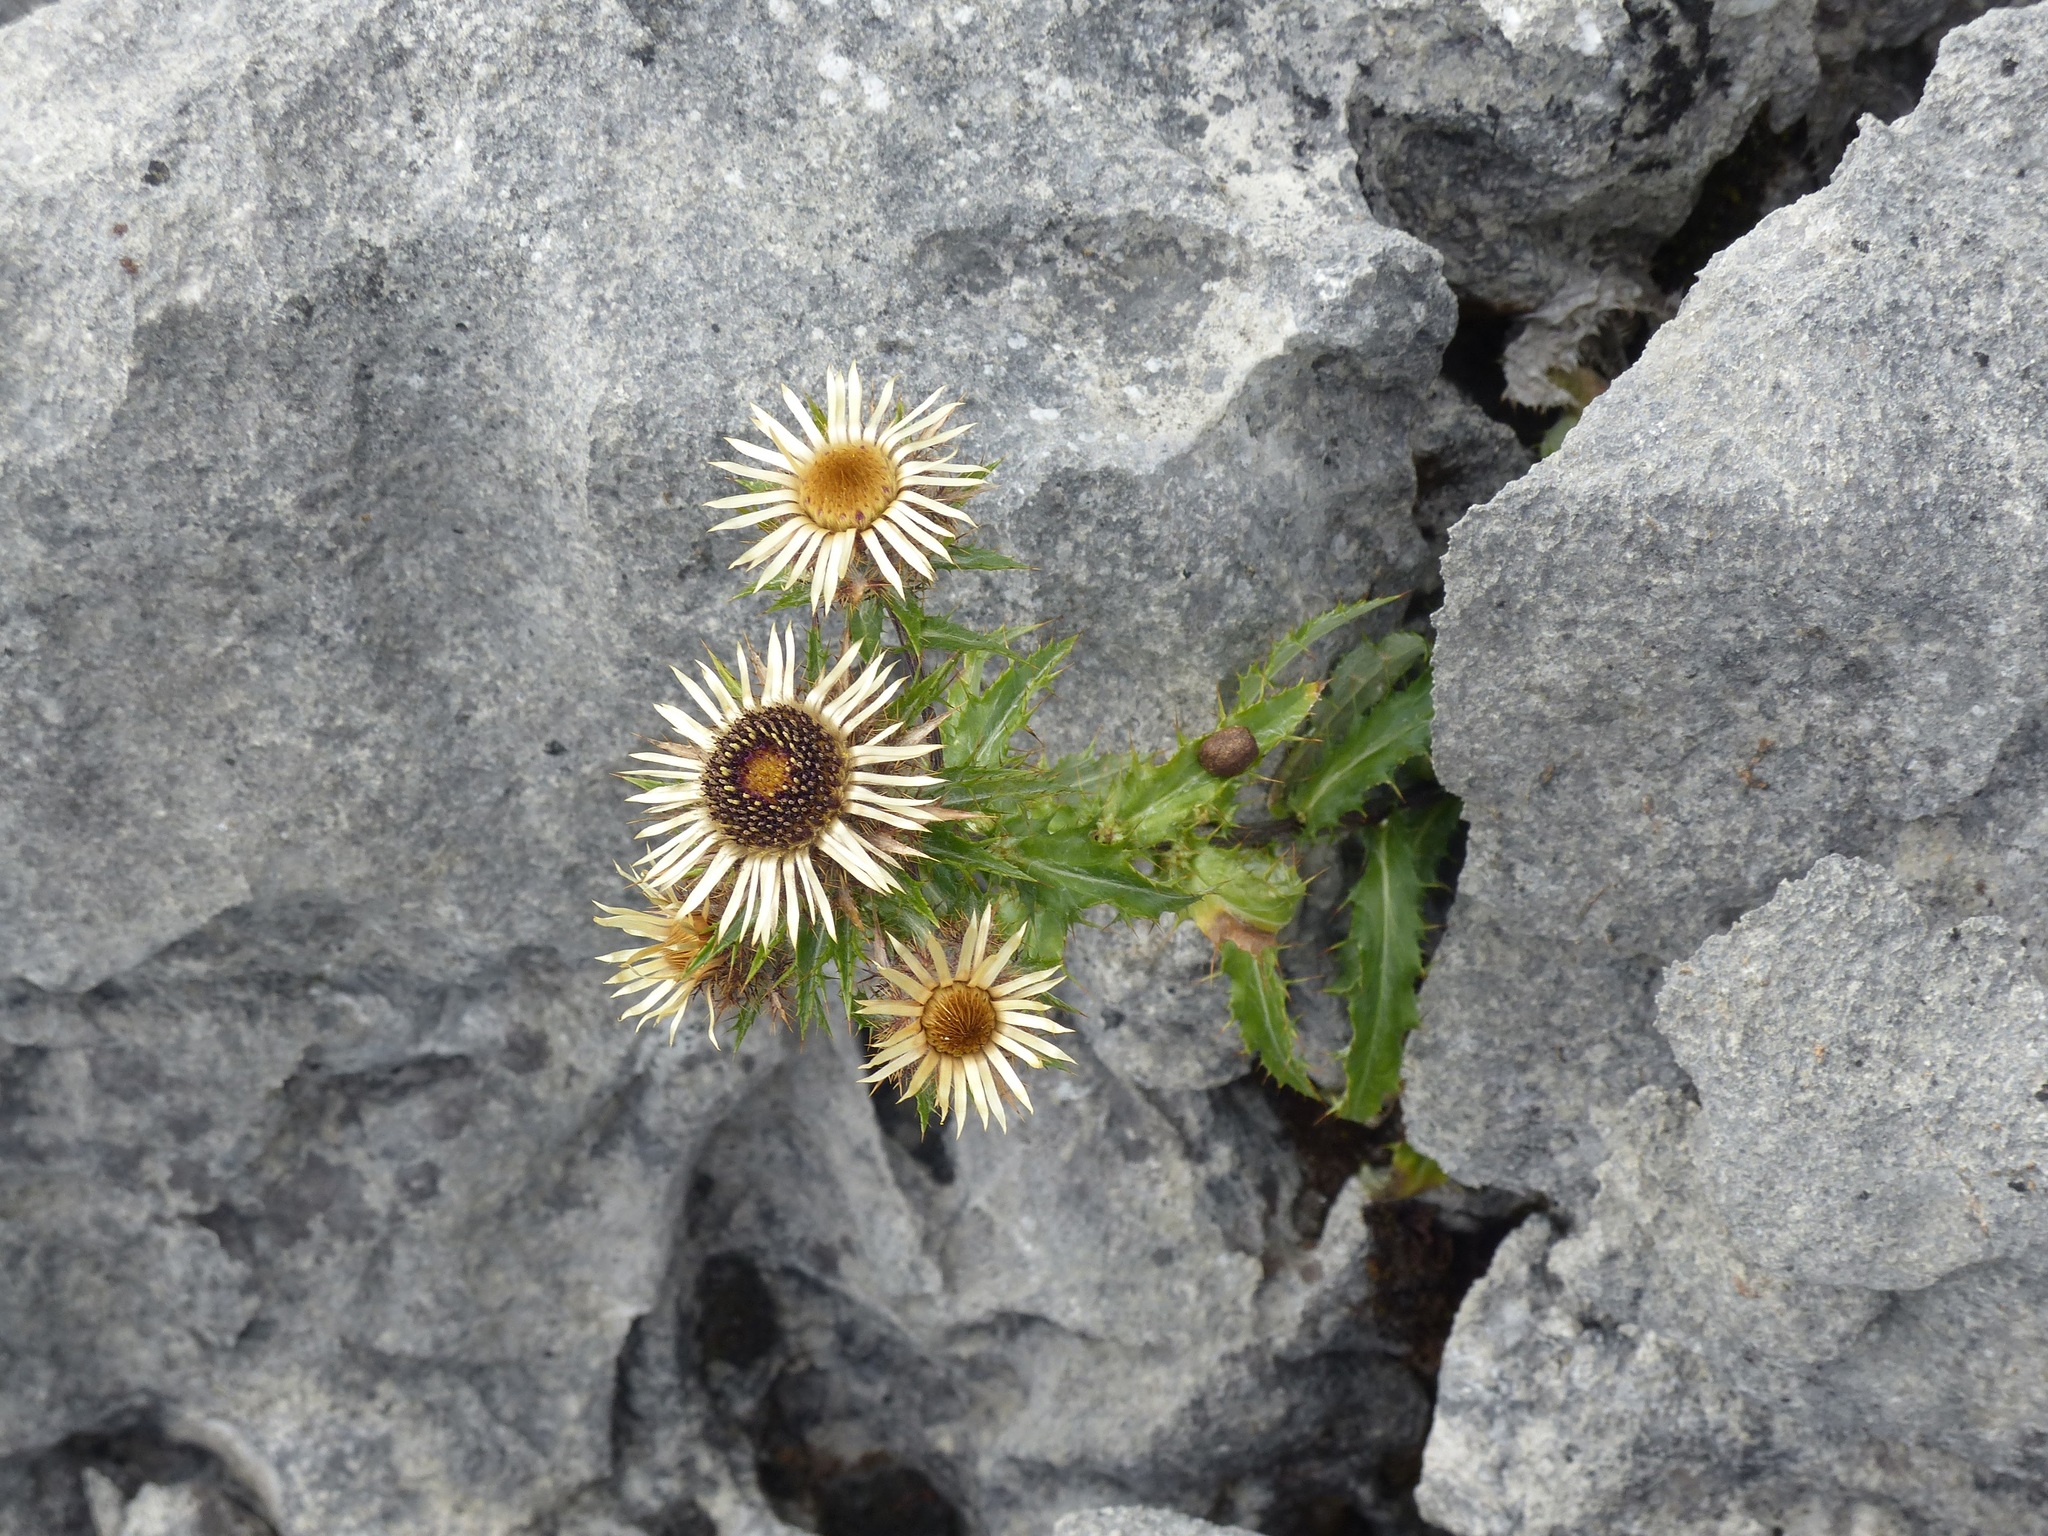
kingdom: Plantae
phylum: Tracheophyta
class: Magnoliopsida
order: Asterales
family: Asteraceae
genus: Carlina
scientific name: Carlina vulgaris
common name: Carline thistle
